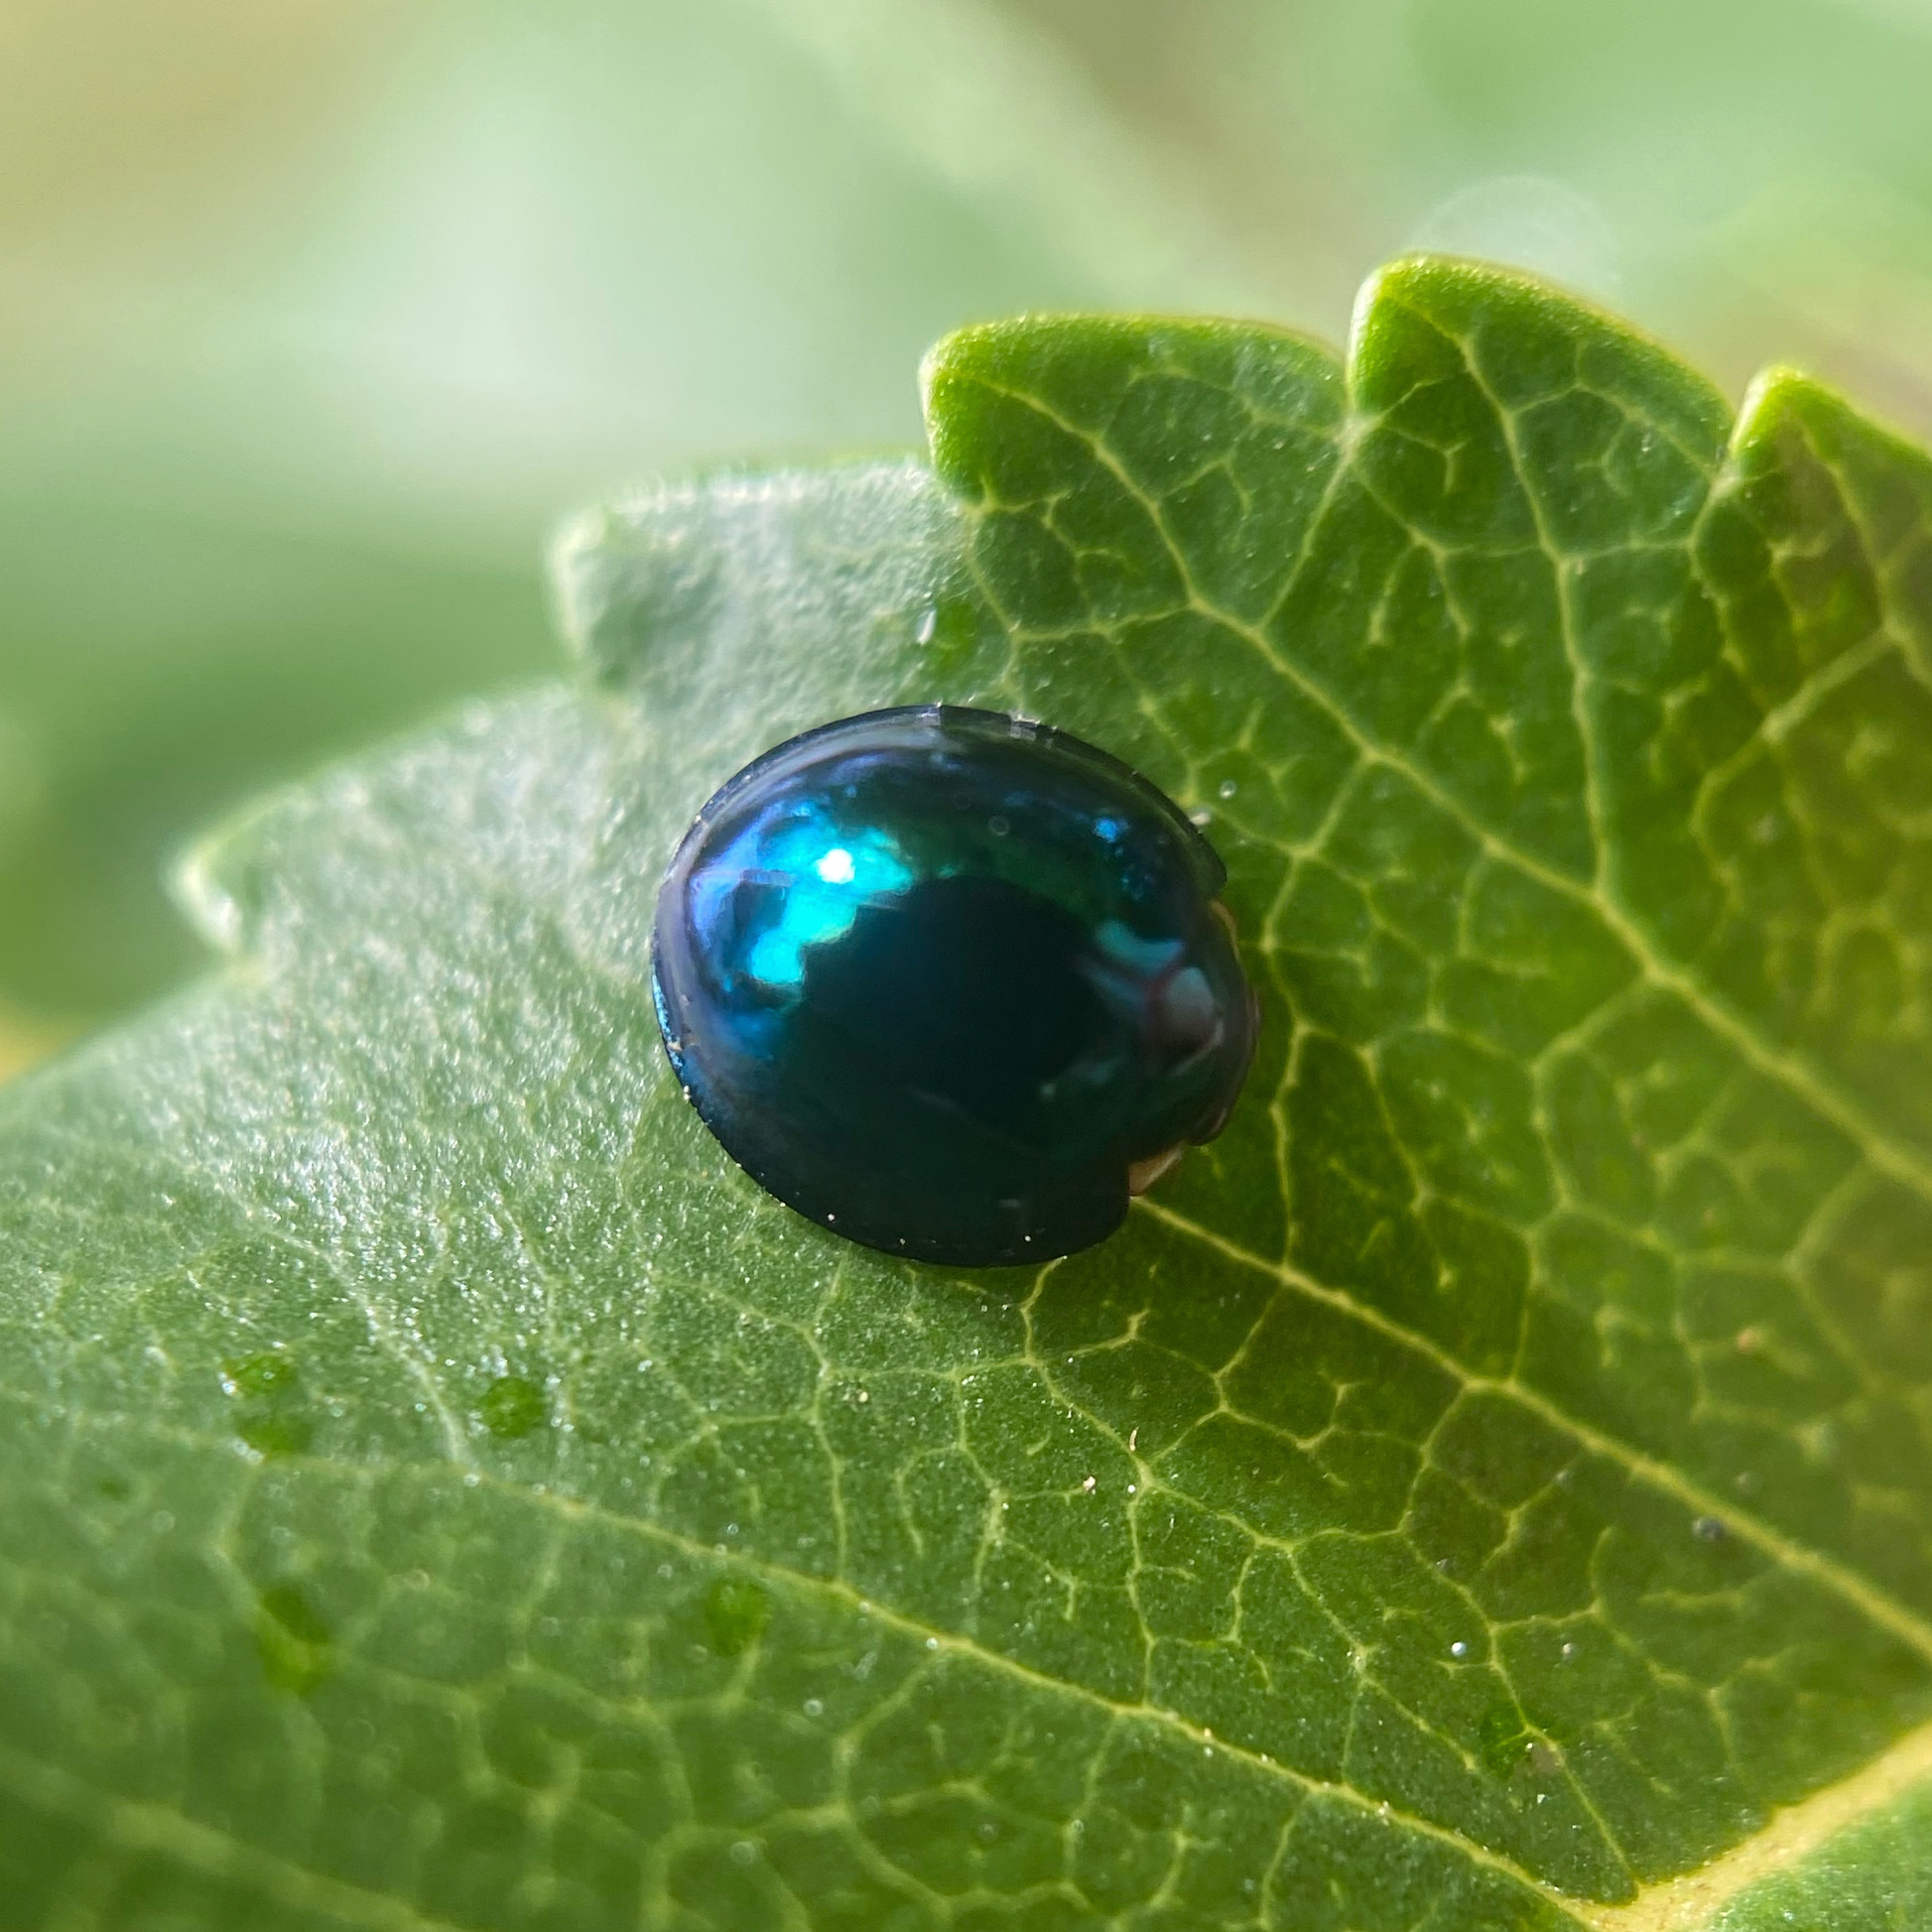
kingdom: Animalia
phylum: Arthropoda
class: Insecta
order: Coleoptera
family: Coccinellidae
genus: Halmus
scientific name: Halmus chalybeus
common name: Steel blue ladybird beetle
